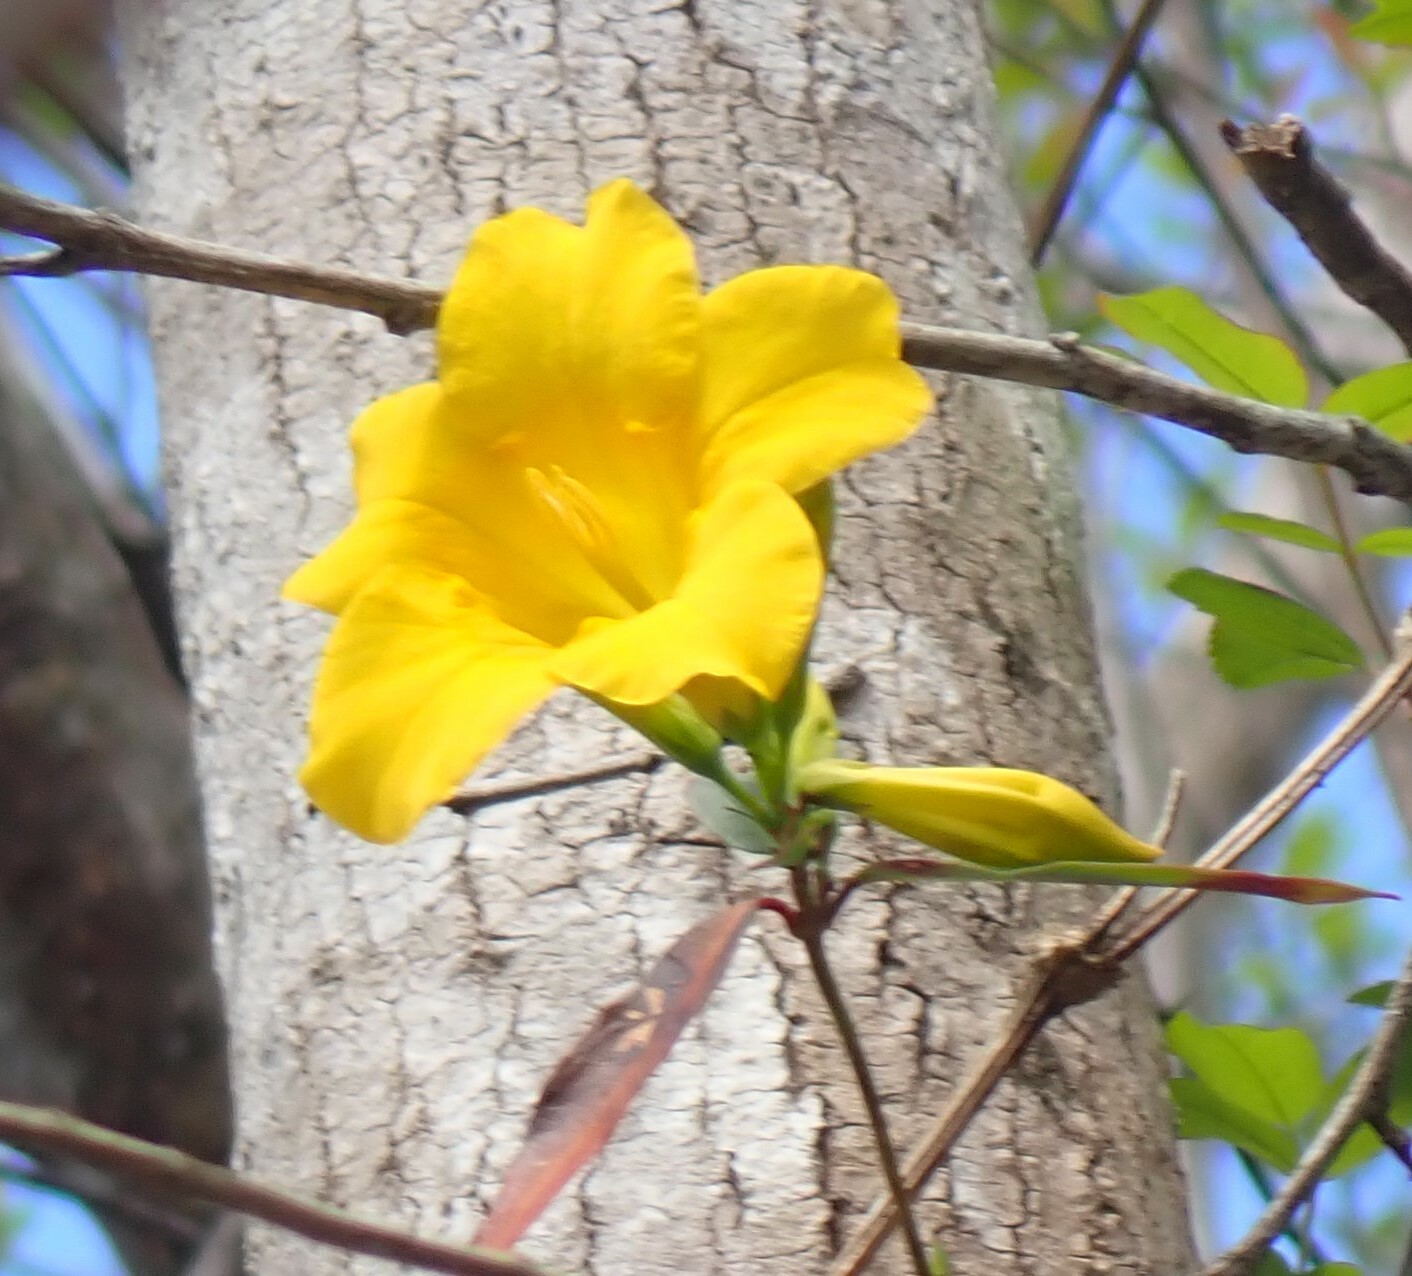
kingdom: Plantae
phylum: Tracheophyta
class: Magnoliopsida
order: Gentianales
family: Gelsemiaceae
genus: Gelsemium
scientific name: Gelsemium rankinii
